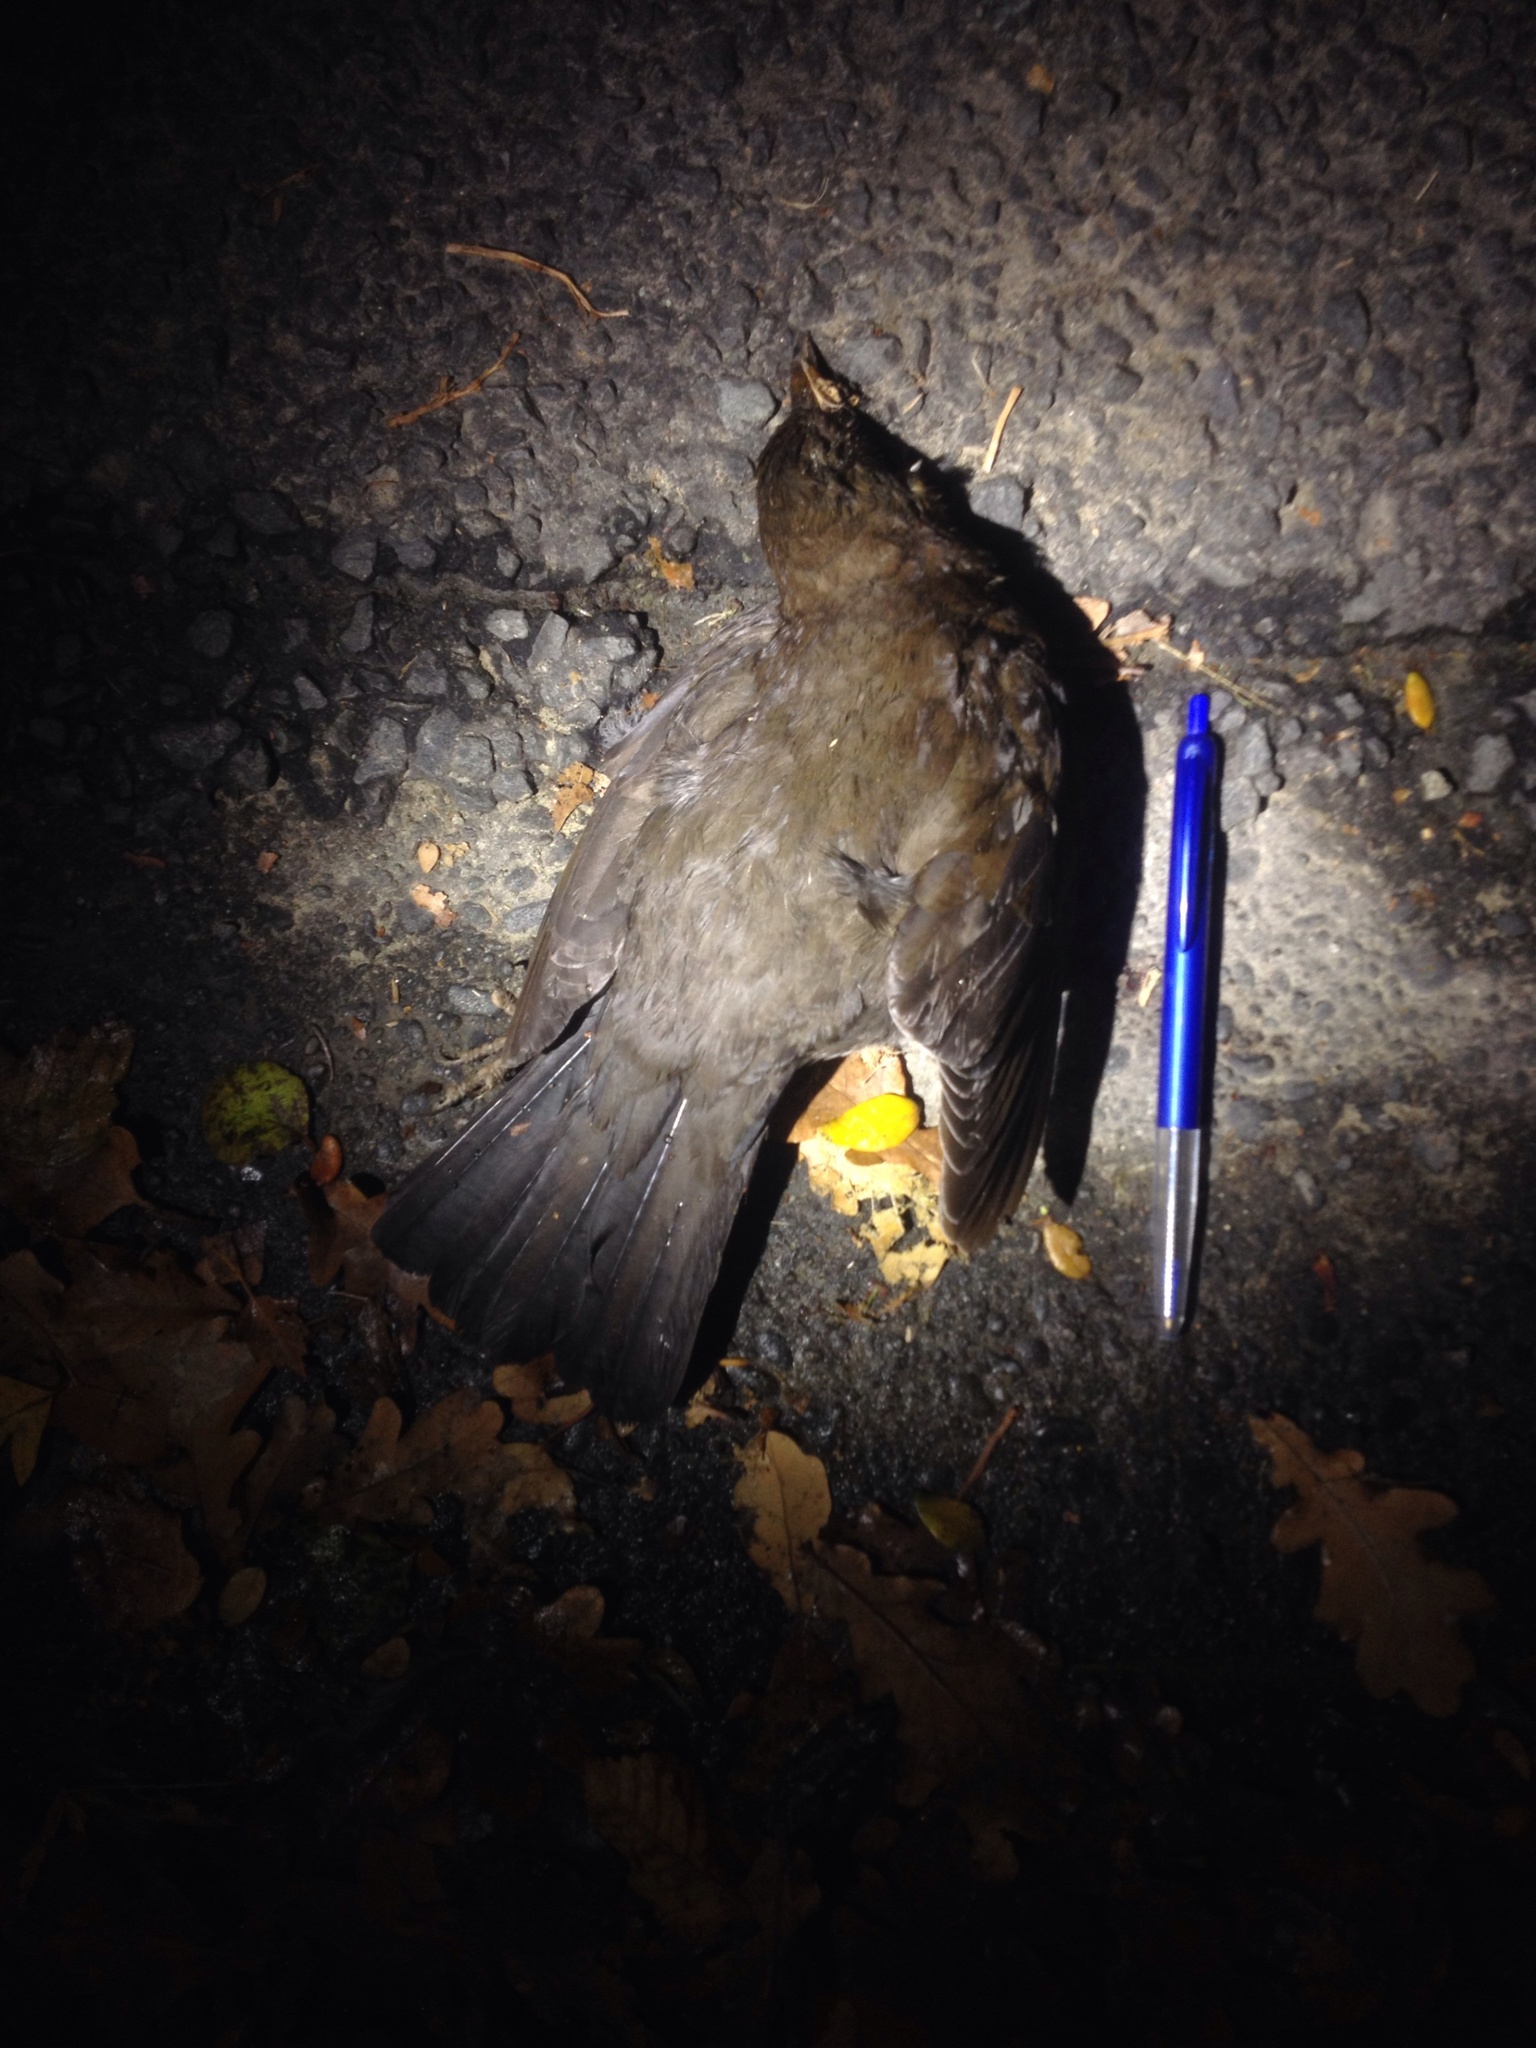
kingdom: Animalia
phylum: Chordata
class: Aves
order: Passeriformes
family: Turdidae
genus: Turdus
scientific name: Turdus merula
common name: Common blackbird
